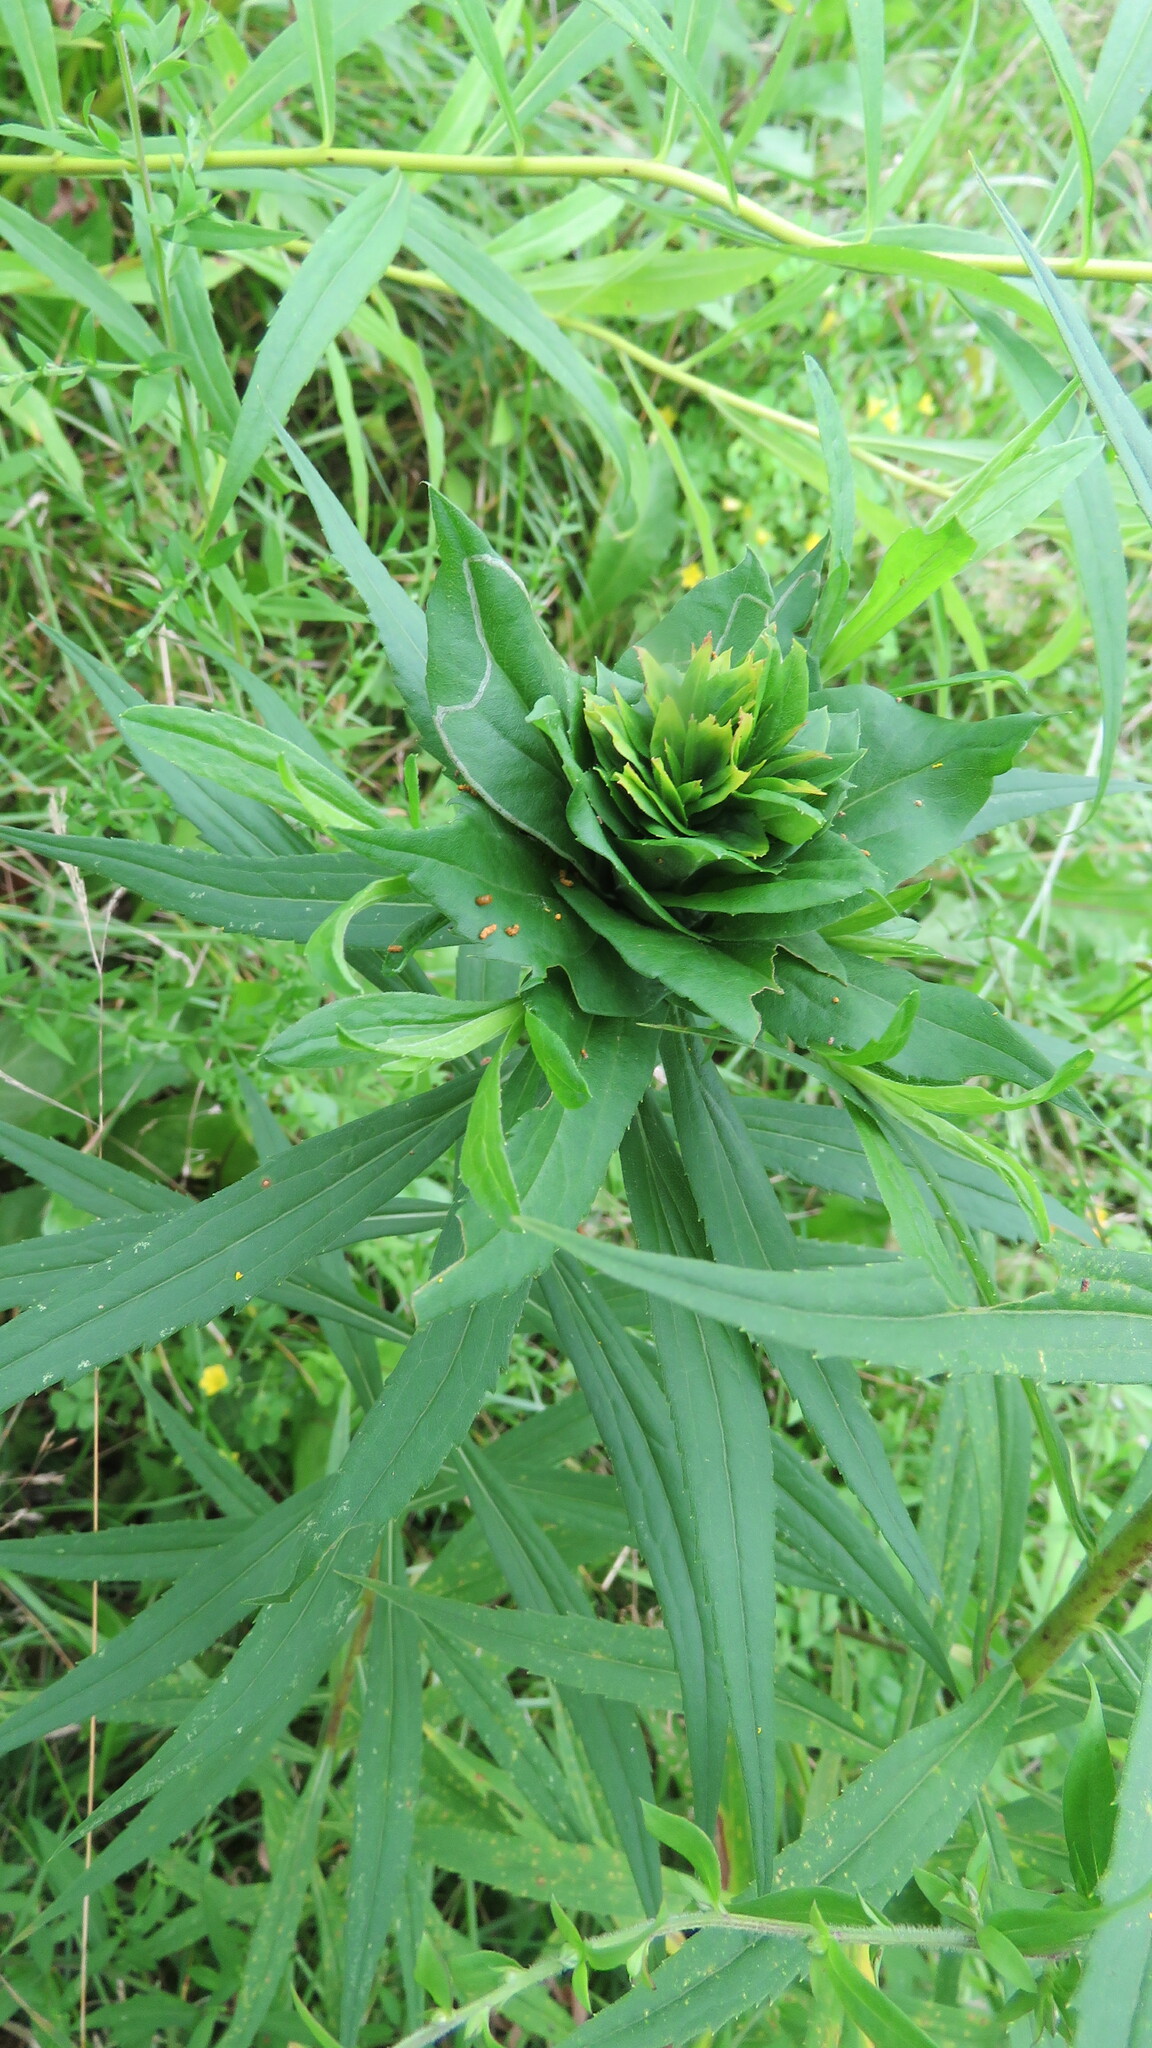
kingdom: Animalia
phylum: Arthropoda
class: Insecta
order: Diptera
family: Cecidomyiidae
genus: Rhopalomyia
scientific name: Rhopalomyia solidaginis
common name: Goldenrod bunch gall midge
